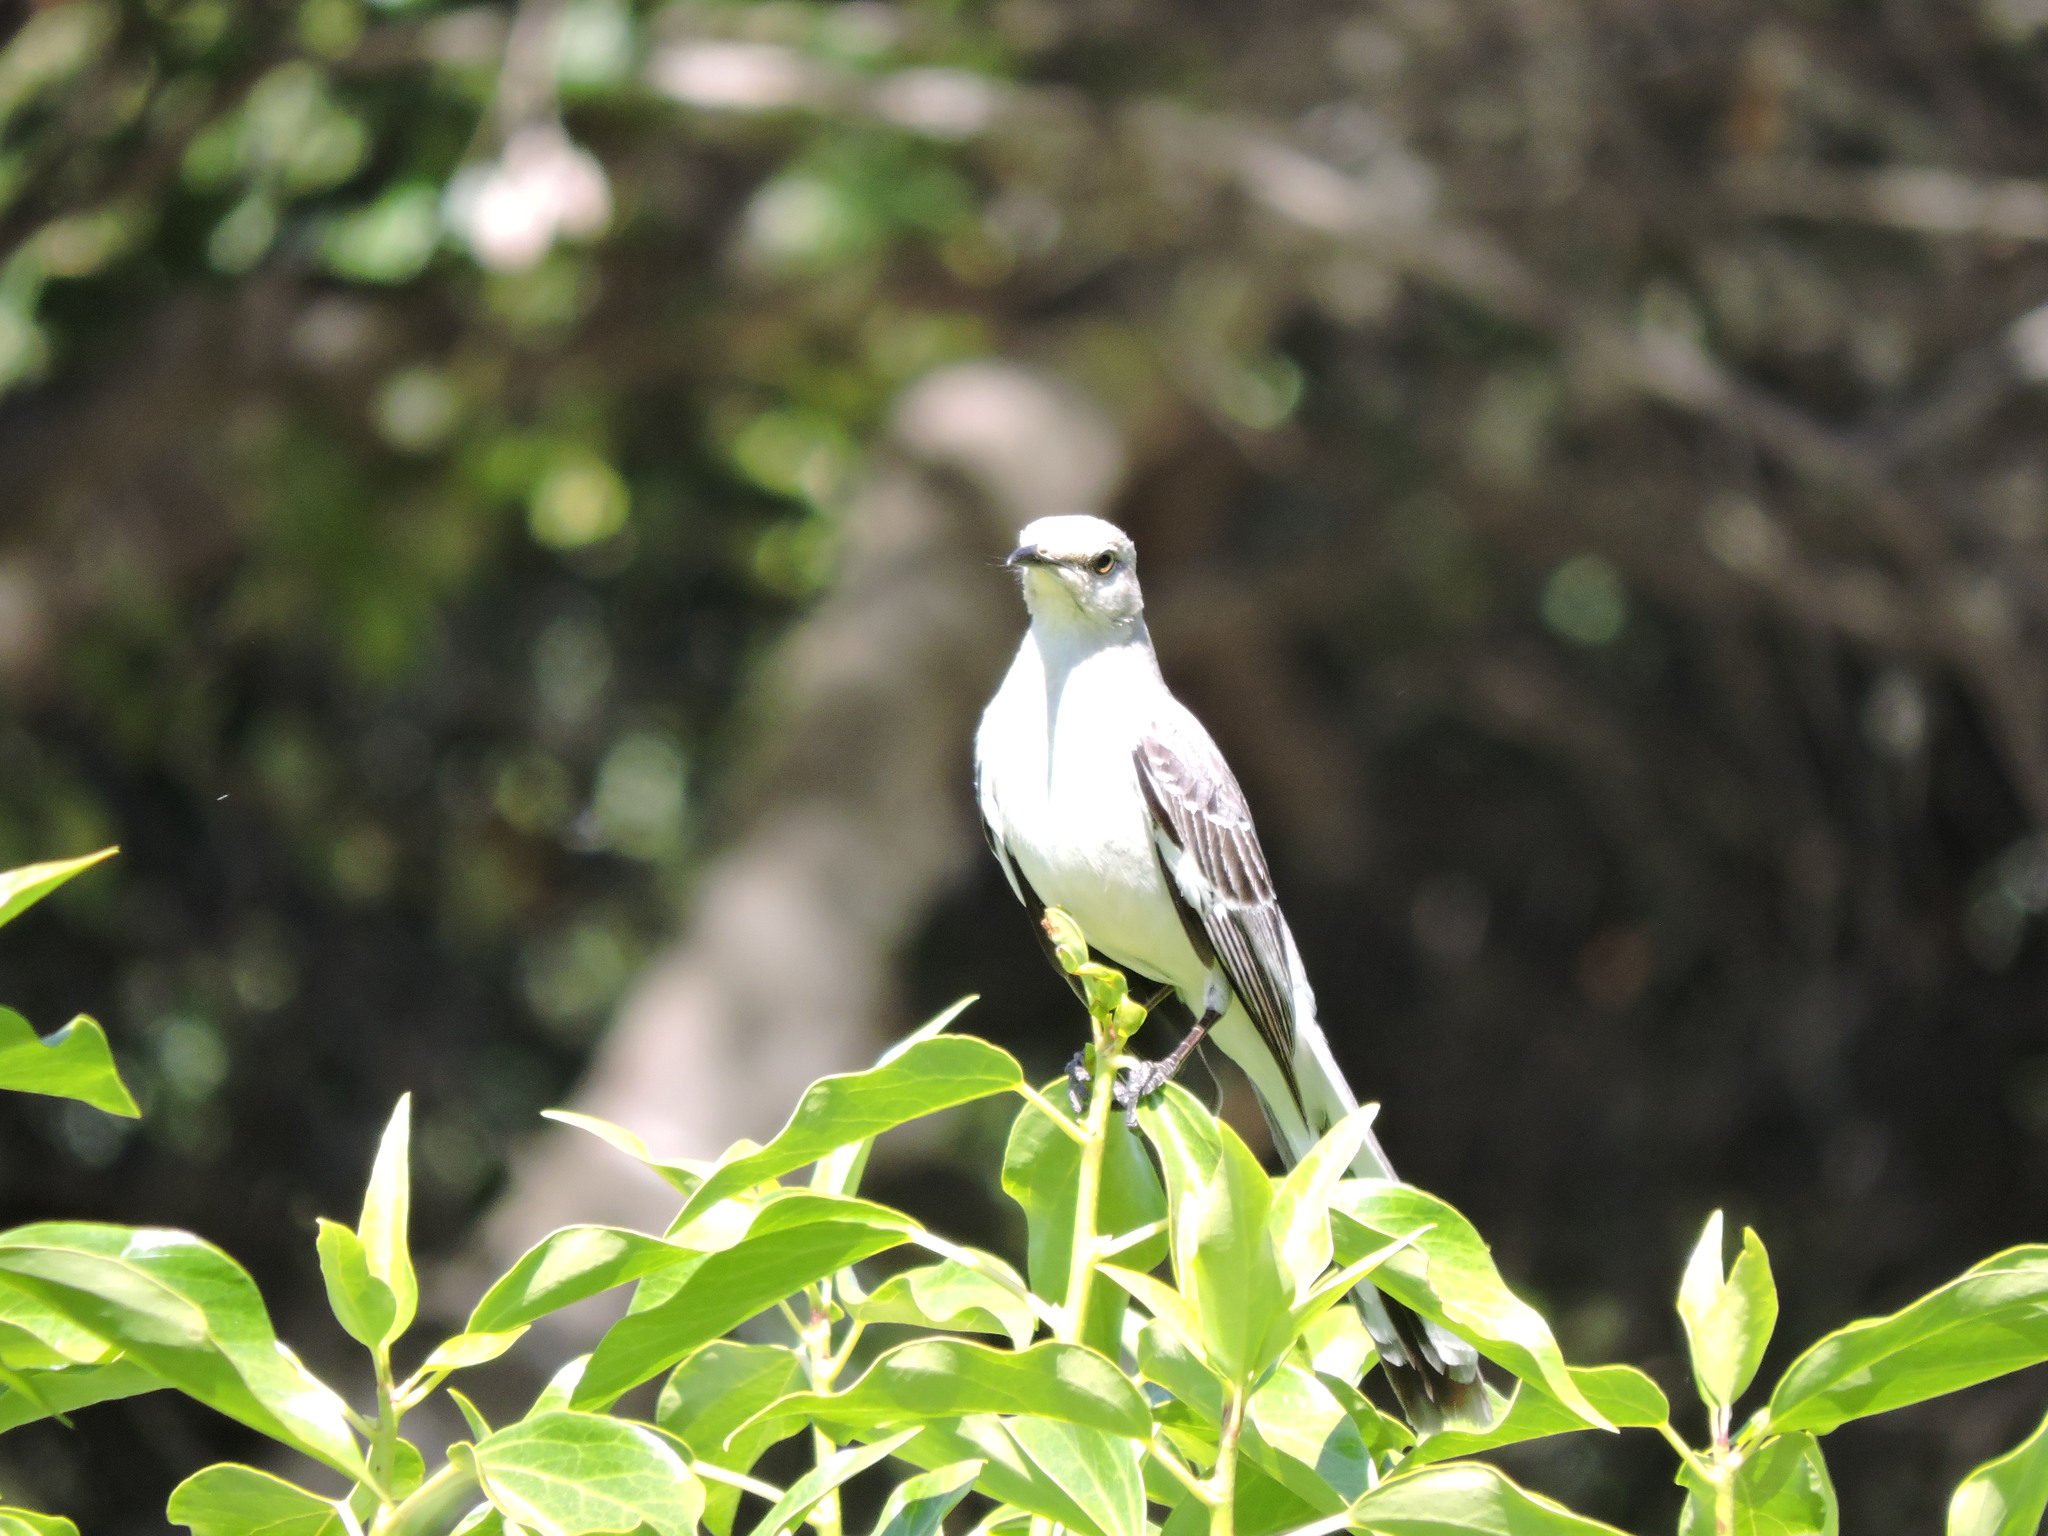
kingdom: Animalia
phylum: Chordata
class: Aves
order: Passeriformes
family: Mimidae
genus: Mimus
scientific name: Mimus polyglottos
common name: Northern mockingbird
